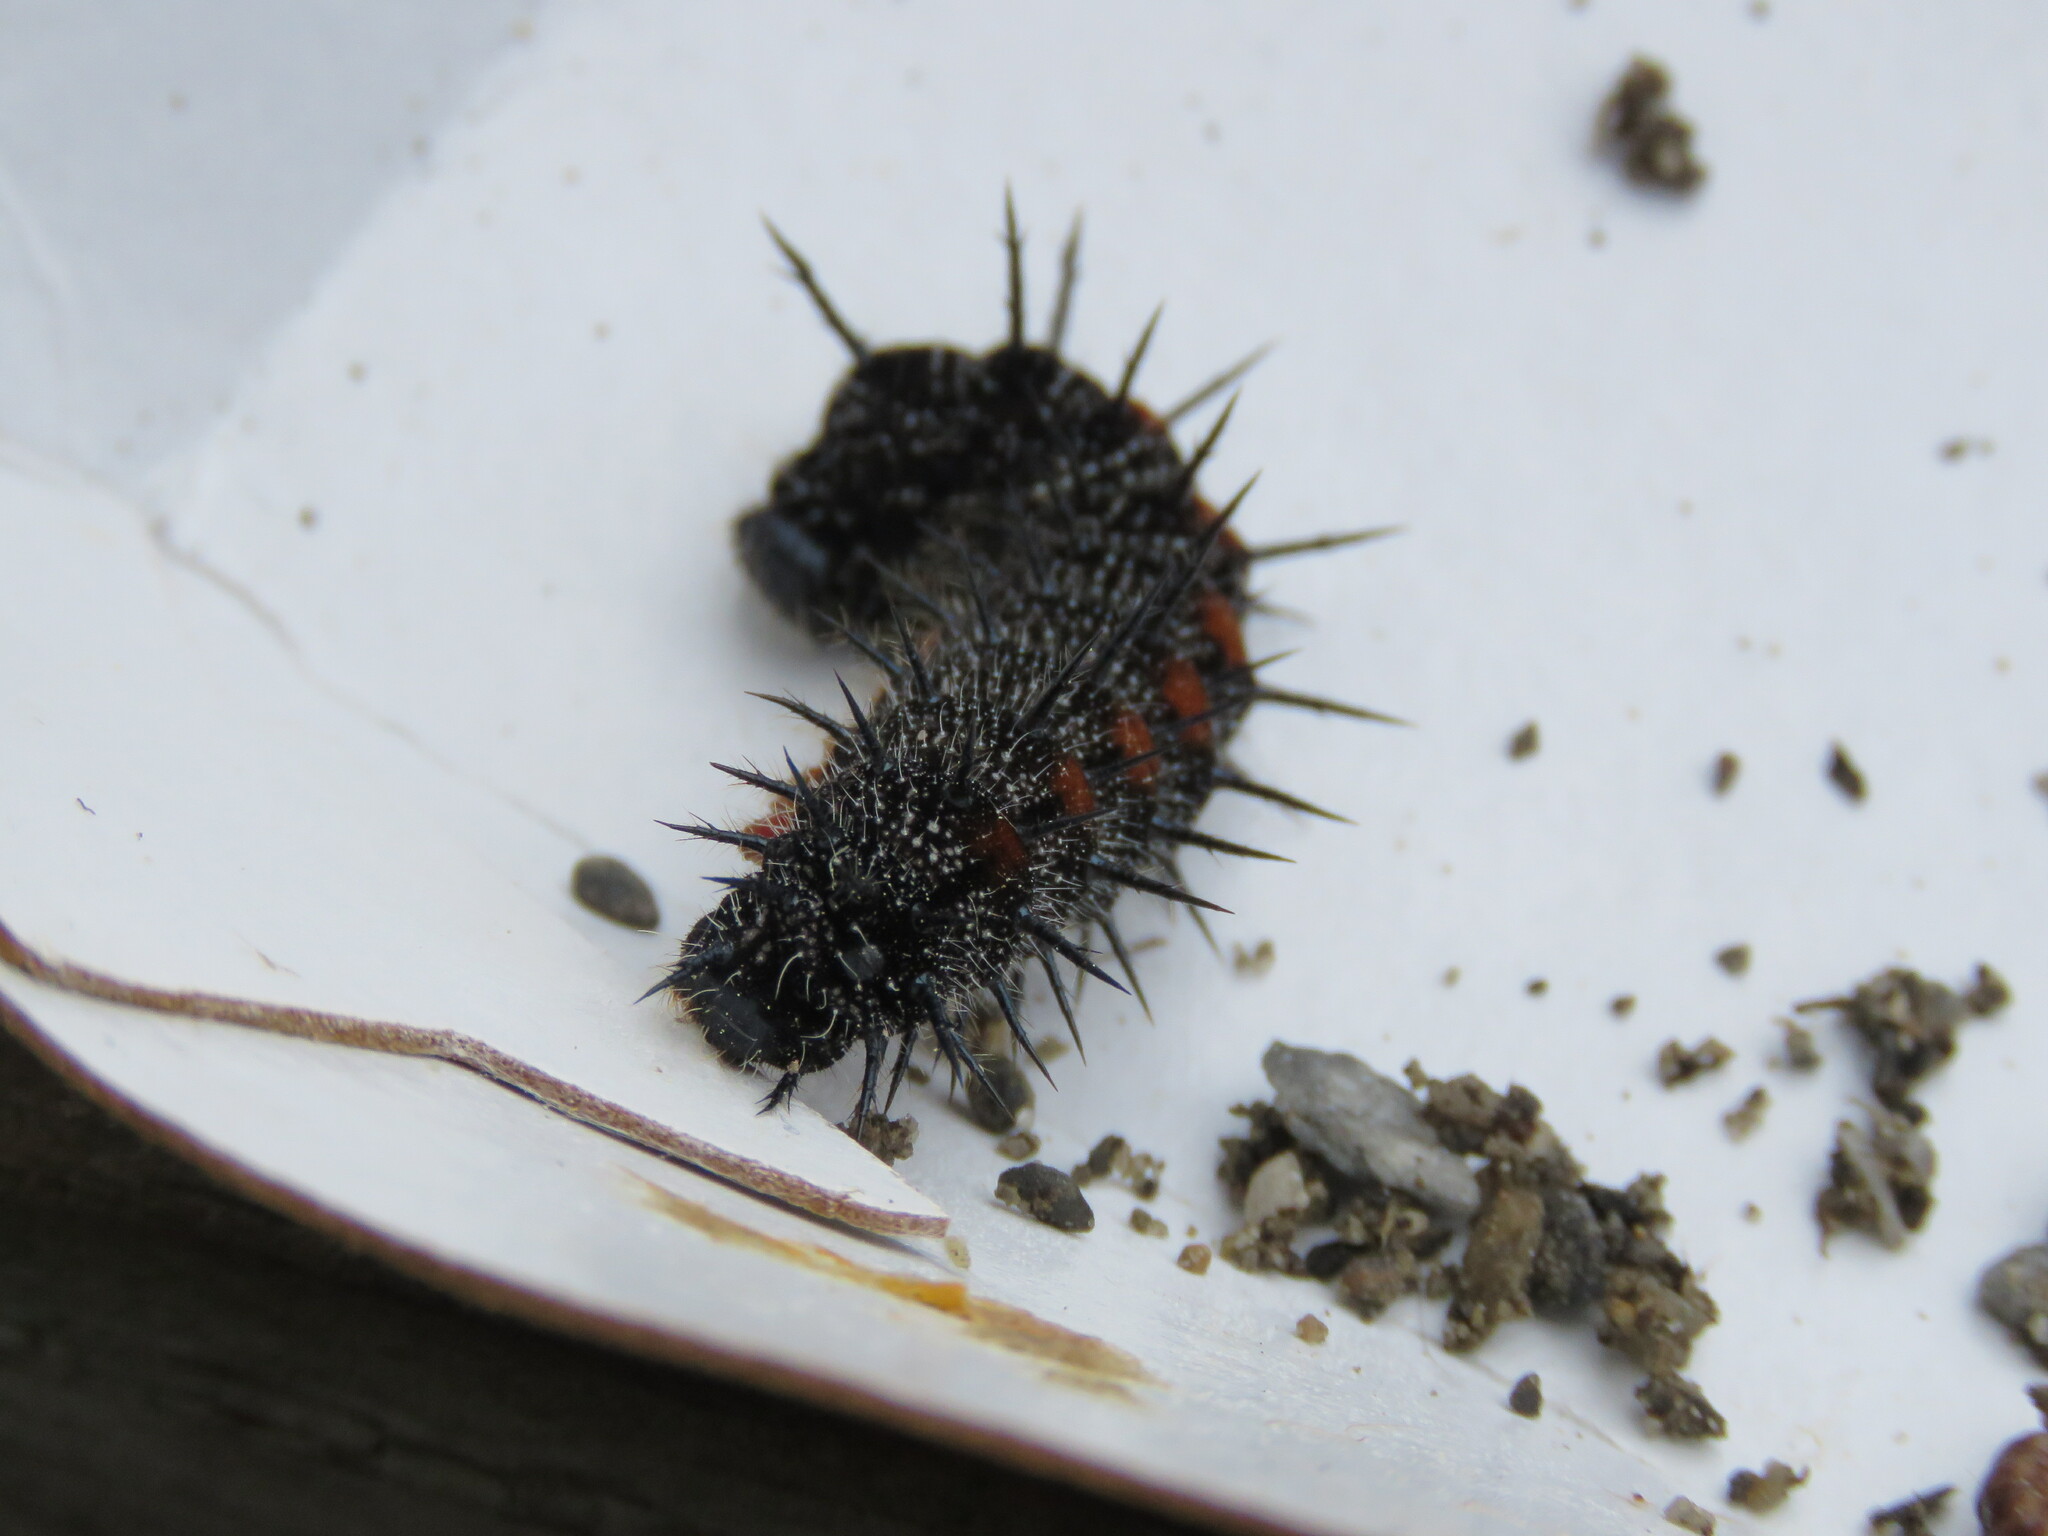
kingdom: Animalia
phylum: Arthropoda
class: Insecta
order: Lepidoptera
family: Nymphalidae
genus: Nymphalis
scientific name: Nymphalis antiopa
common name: Camberwell beauty
